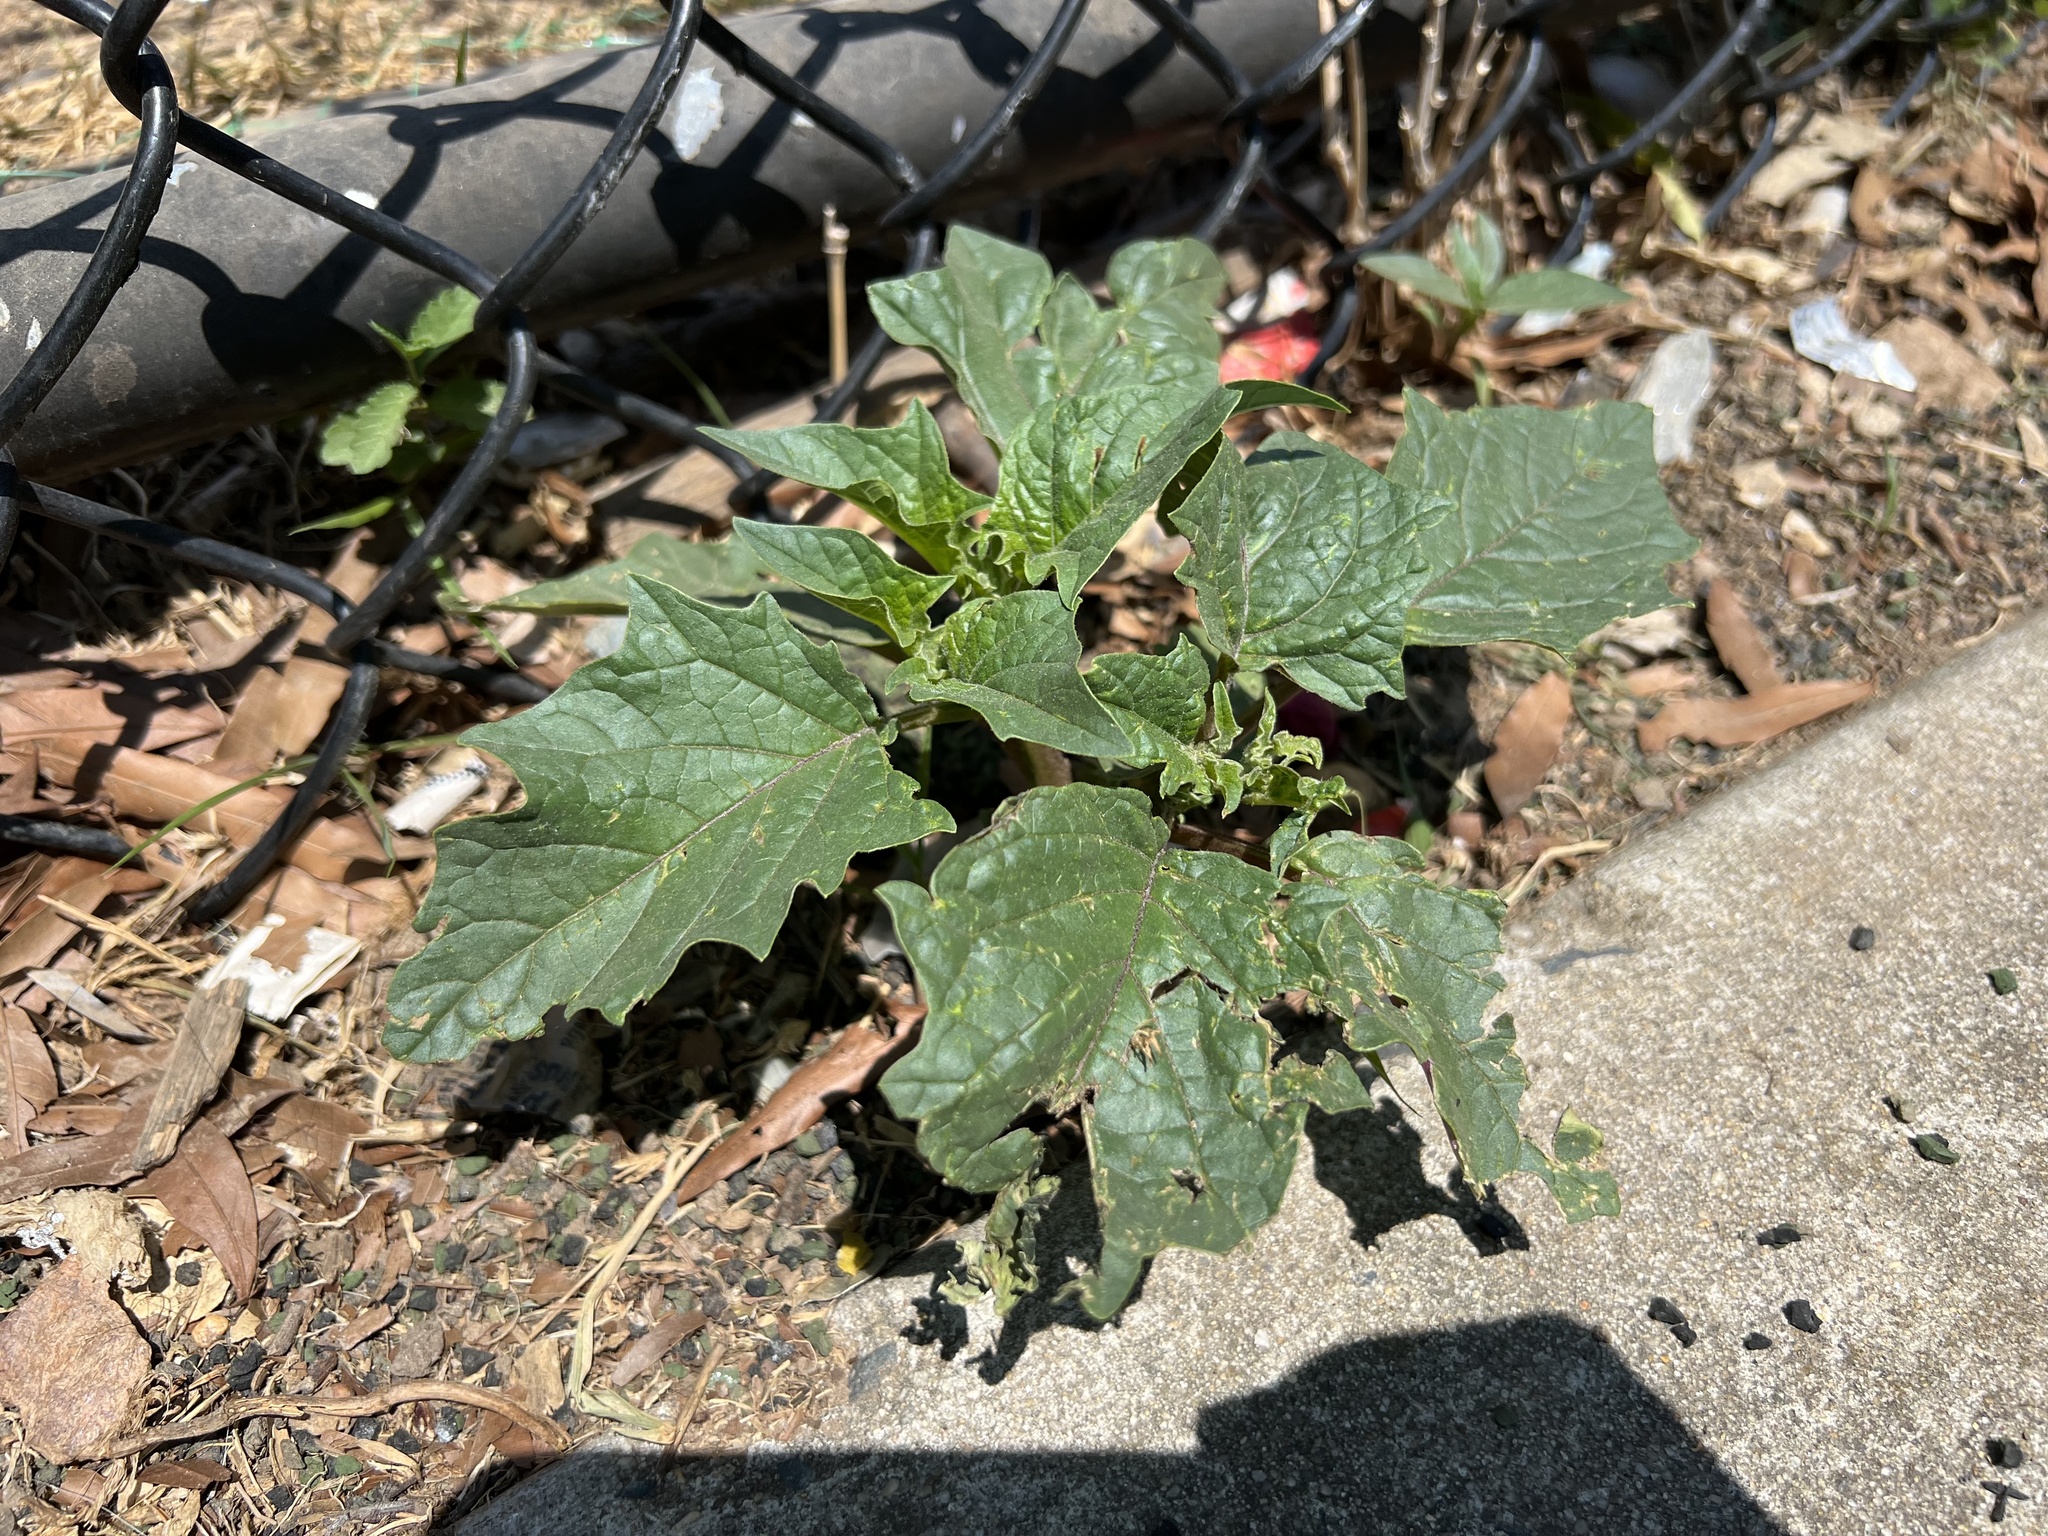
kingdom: Plantae
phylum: Tracheophyta
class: Magnoliopsida
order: Solanales
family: Solanaceae
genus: Datura
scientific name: Datura stramonium
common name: Thorn-apple
